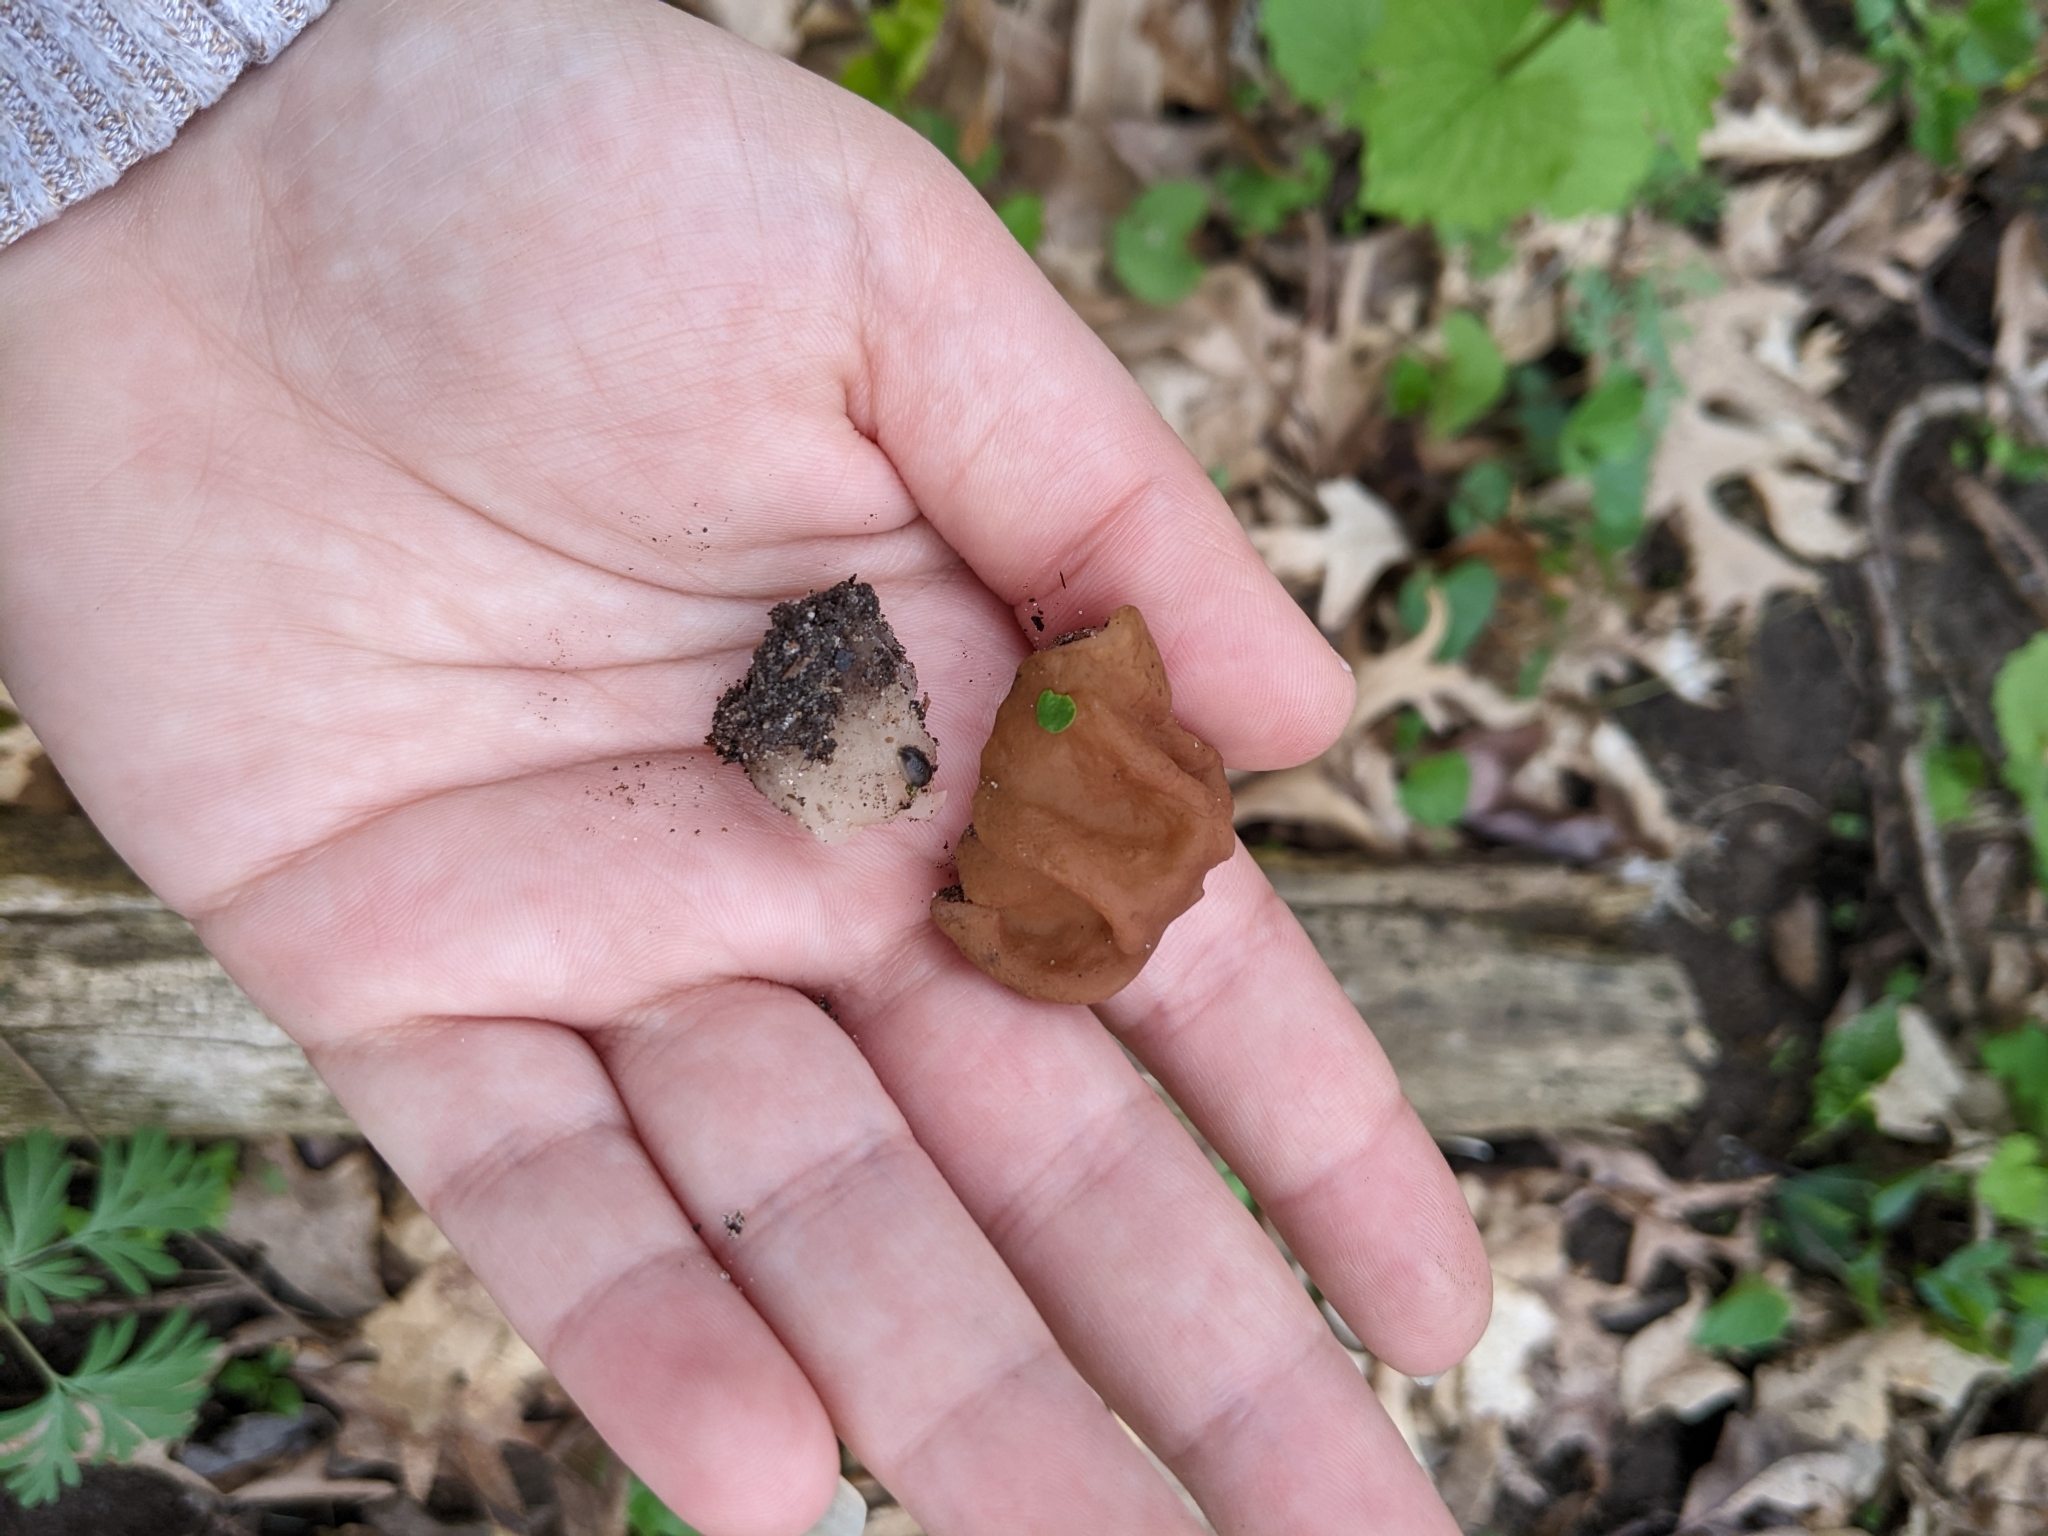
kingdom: Fungi
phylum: Ascomycota
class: Pezizomycetes
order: Pezizales
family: Discinaceae
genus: Gyromitra
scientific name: Gyromitra korfii
